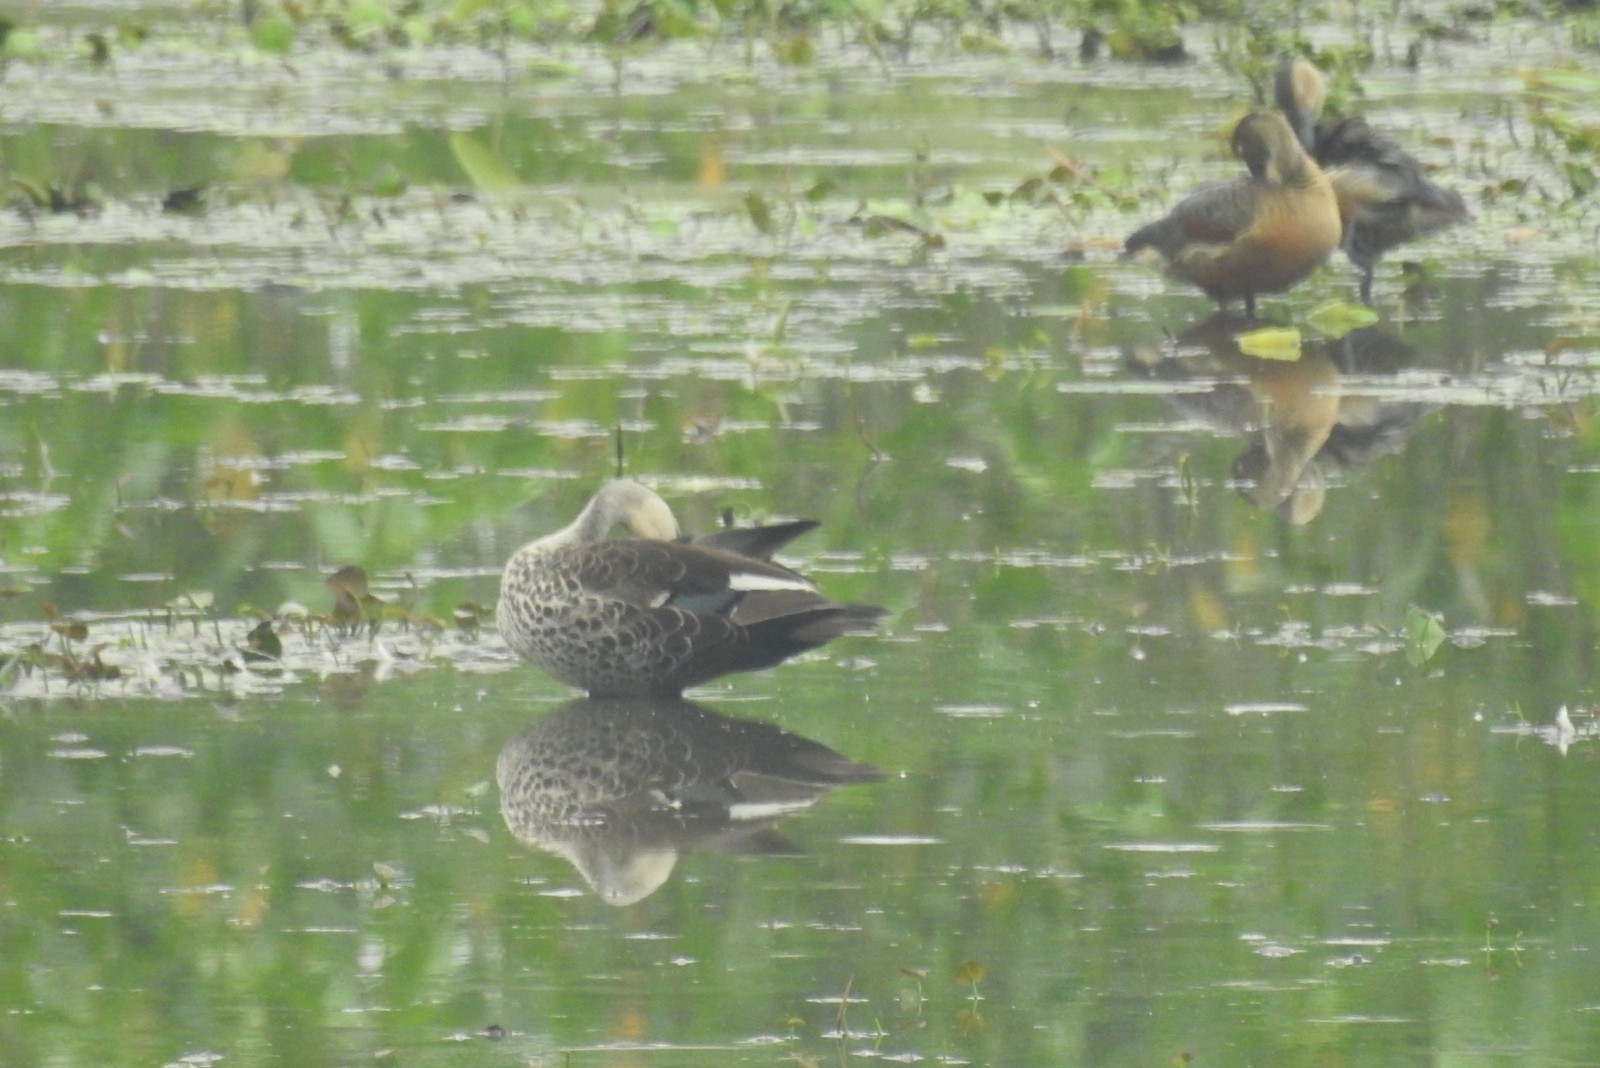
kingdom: Animalia
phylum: Chordata
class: Aves
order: Anseriformes
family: Anatidae
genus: Anas
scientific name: Anas poecilorhyncha
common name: Indian spot-billed duck
